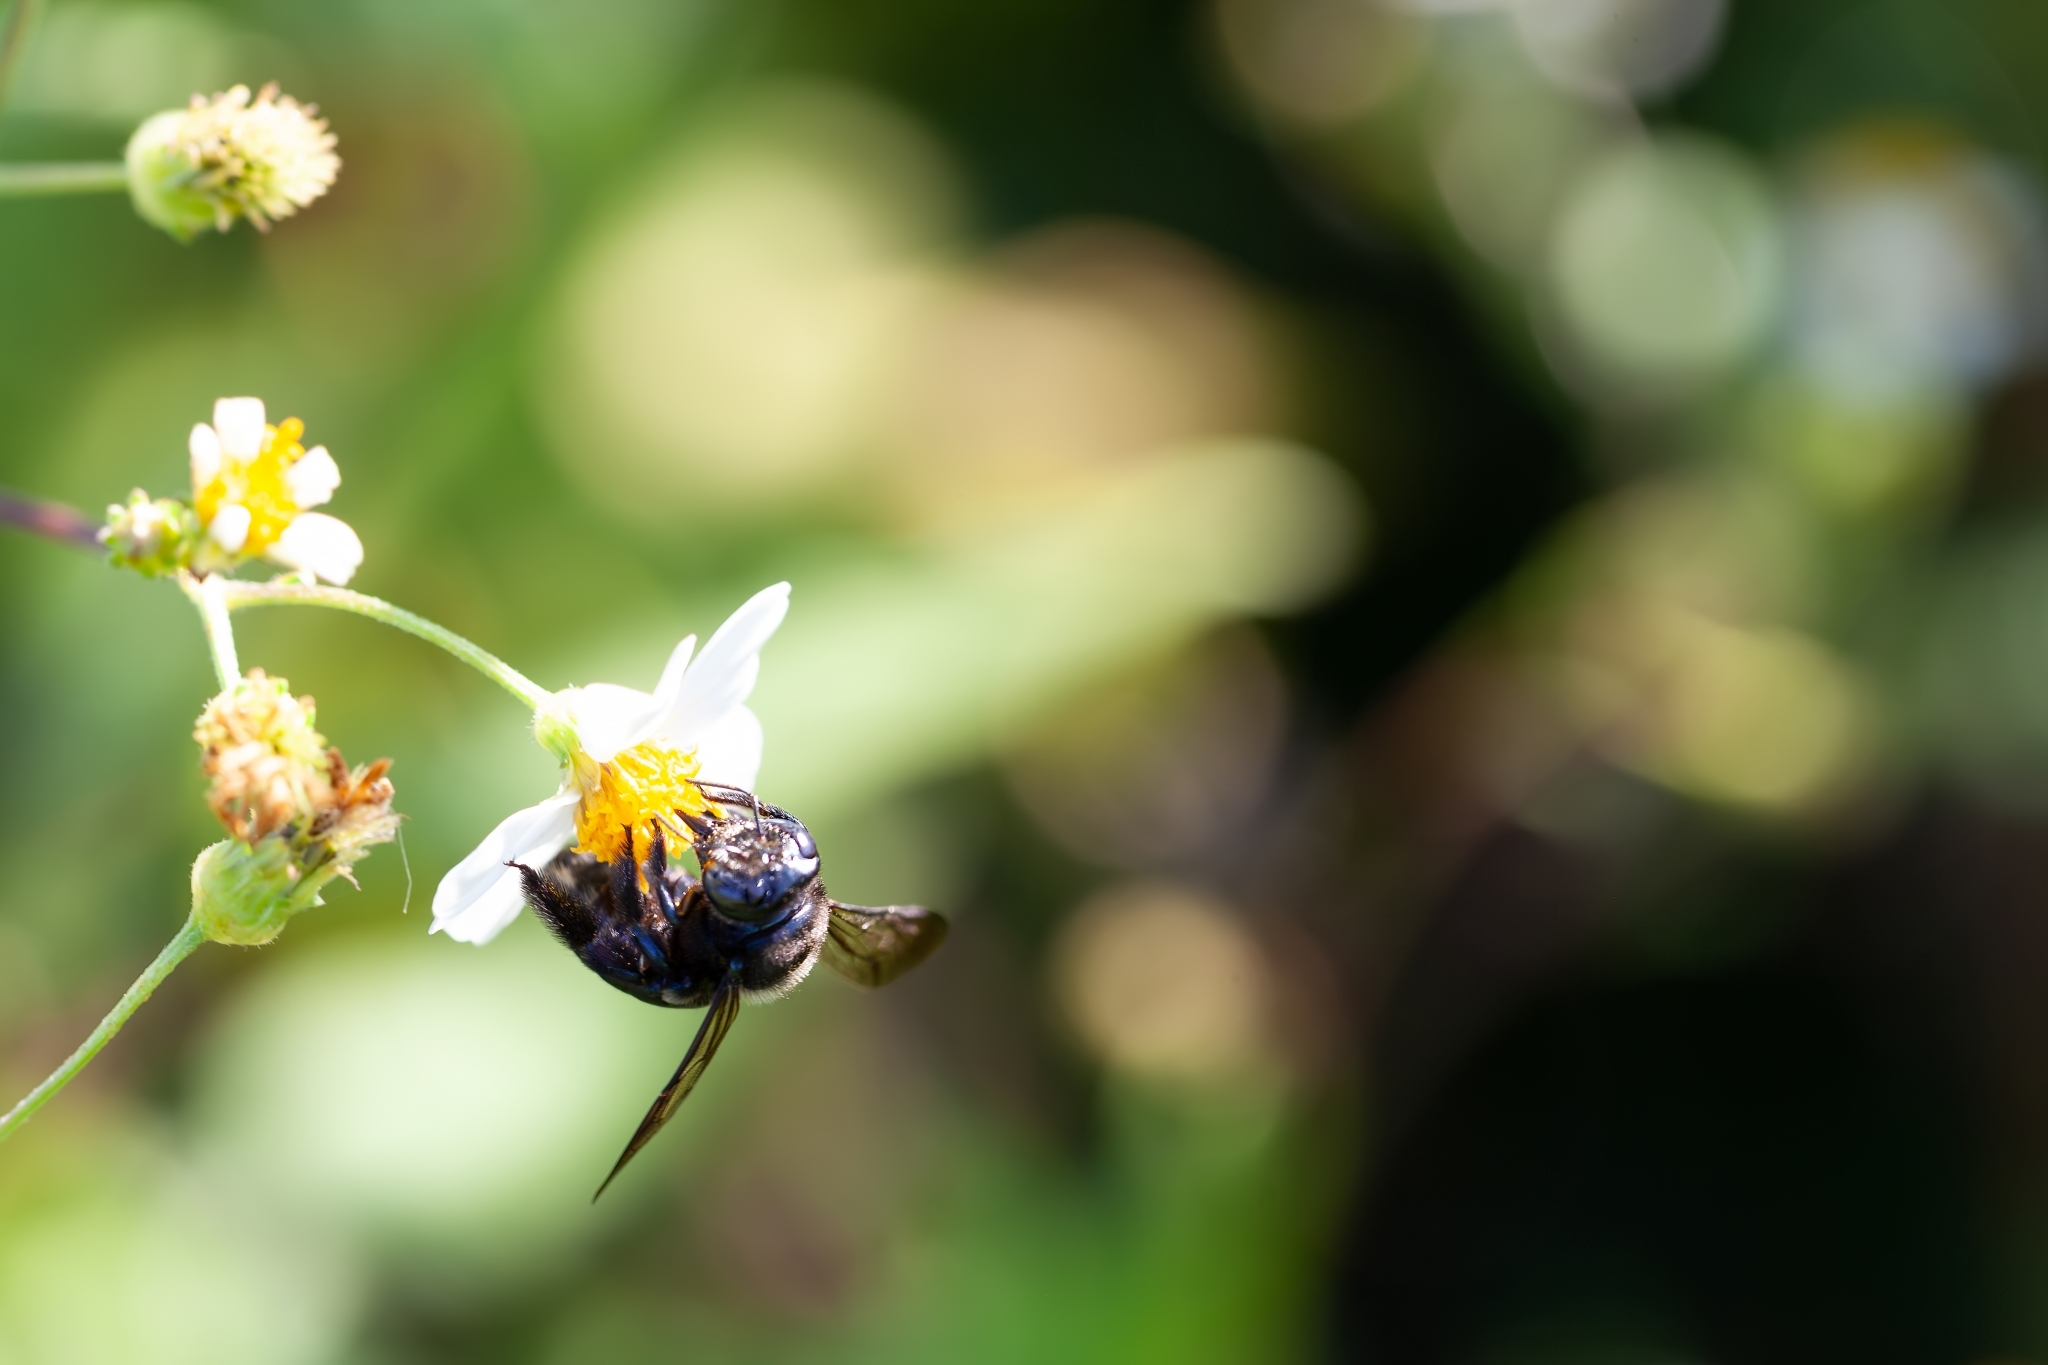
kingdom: Animalia
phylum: Arthropoda
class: Insecta
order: Hymenoptera
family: Apidae
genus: Xylocopa
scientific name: Xylocopa micans
